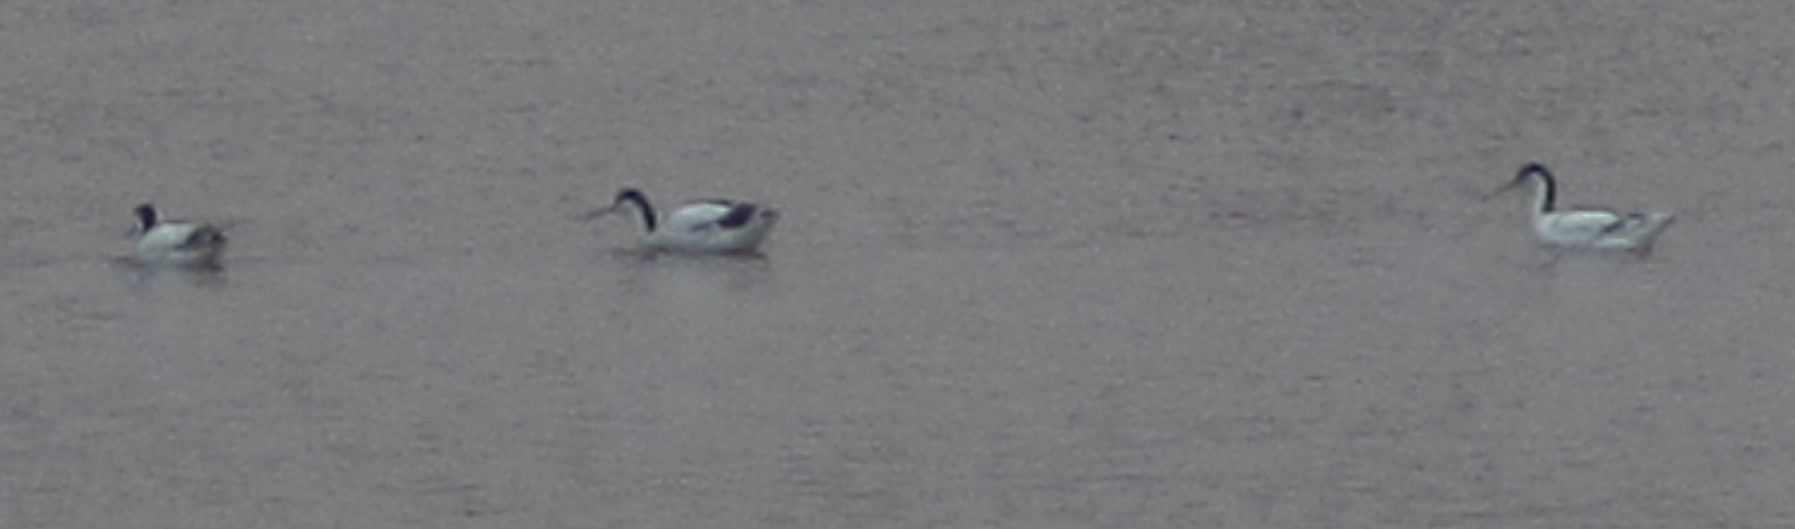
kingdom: Animalia
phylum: Chordata
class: Aves
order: Charadriiformes
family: Recurvirostridae
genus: Recurvirostra
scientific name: Recurvirostra avosetta
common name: Pied avocet
